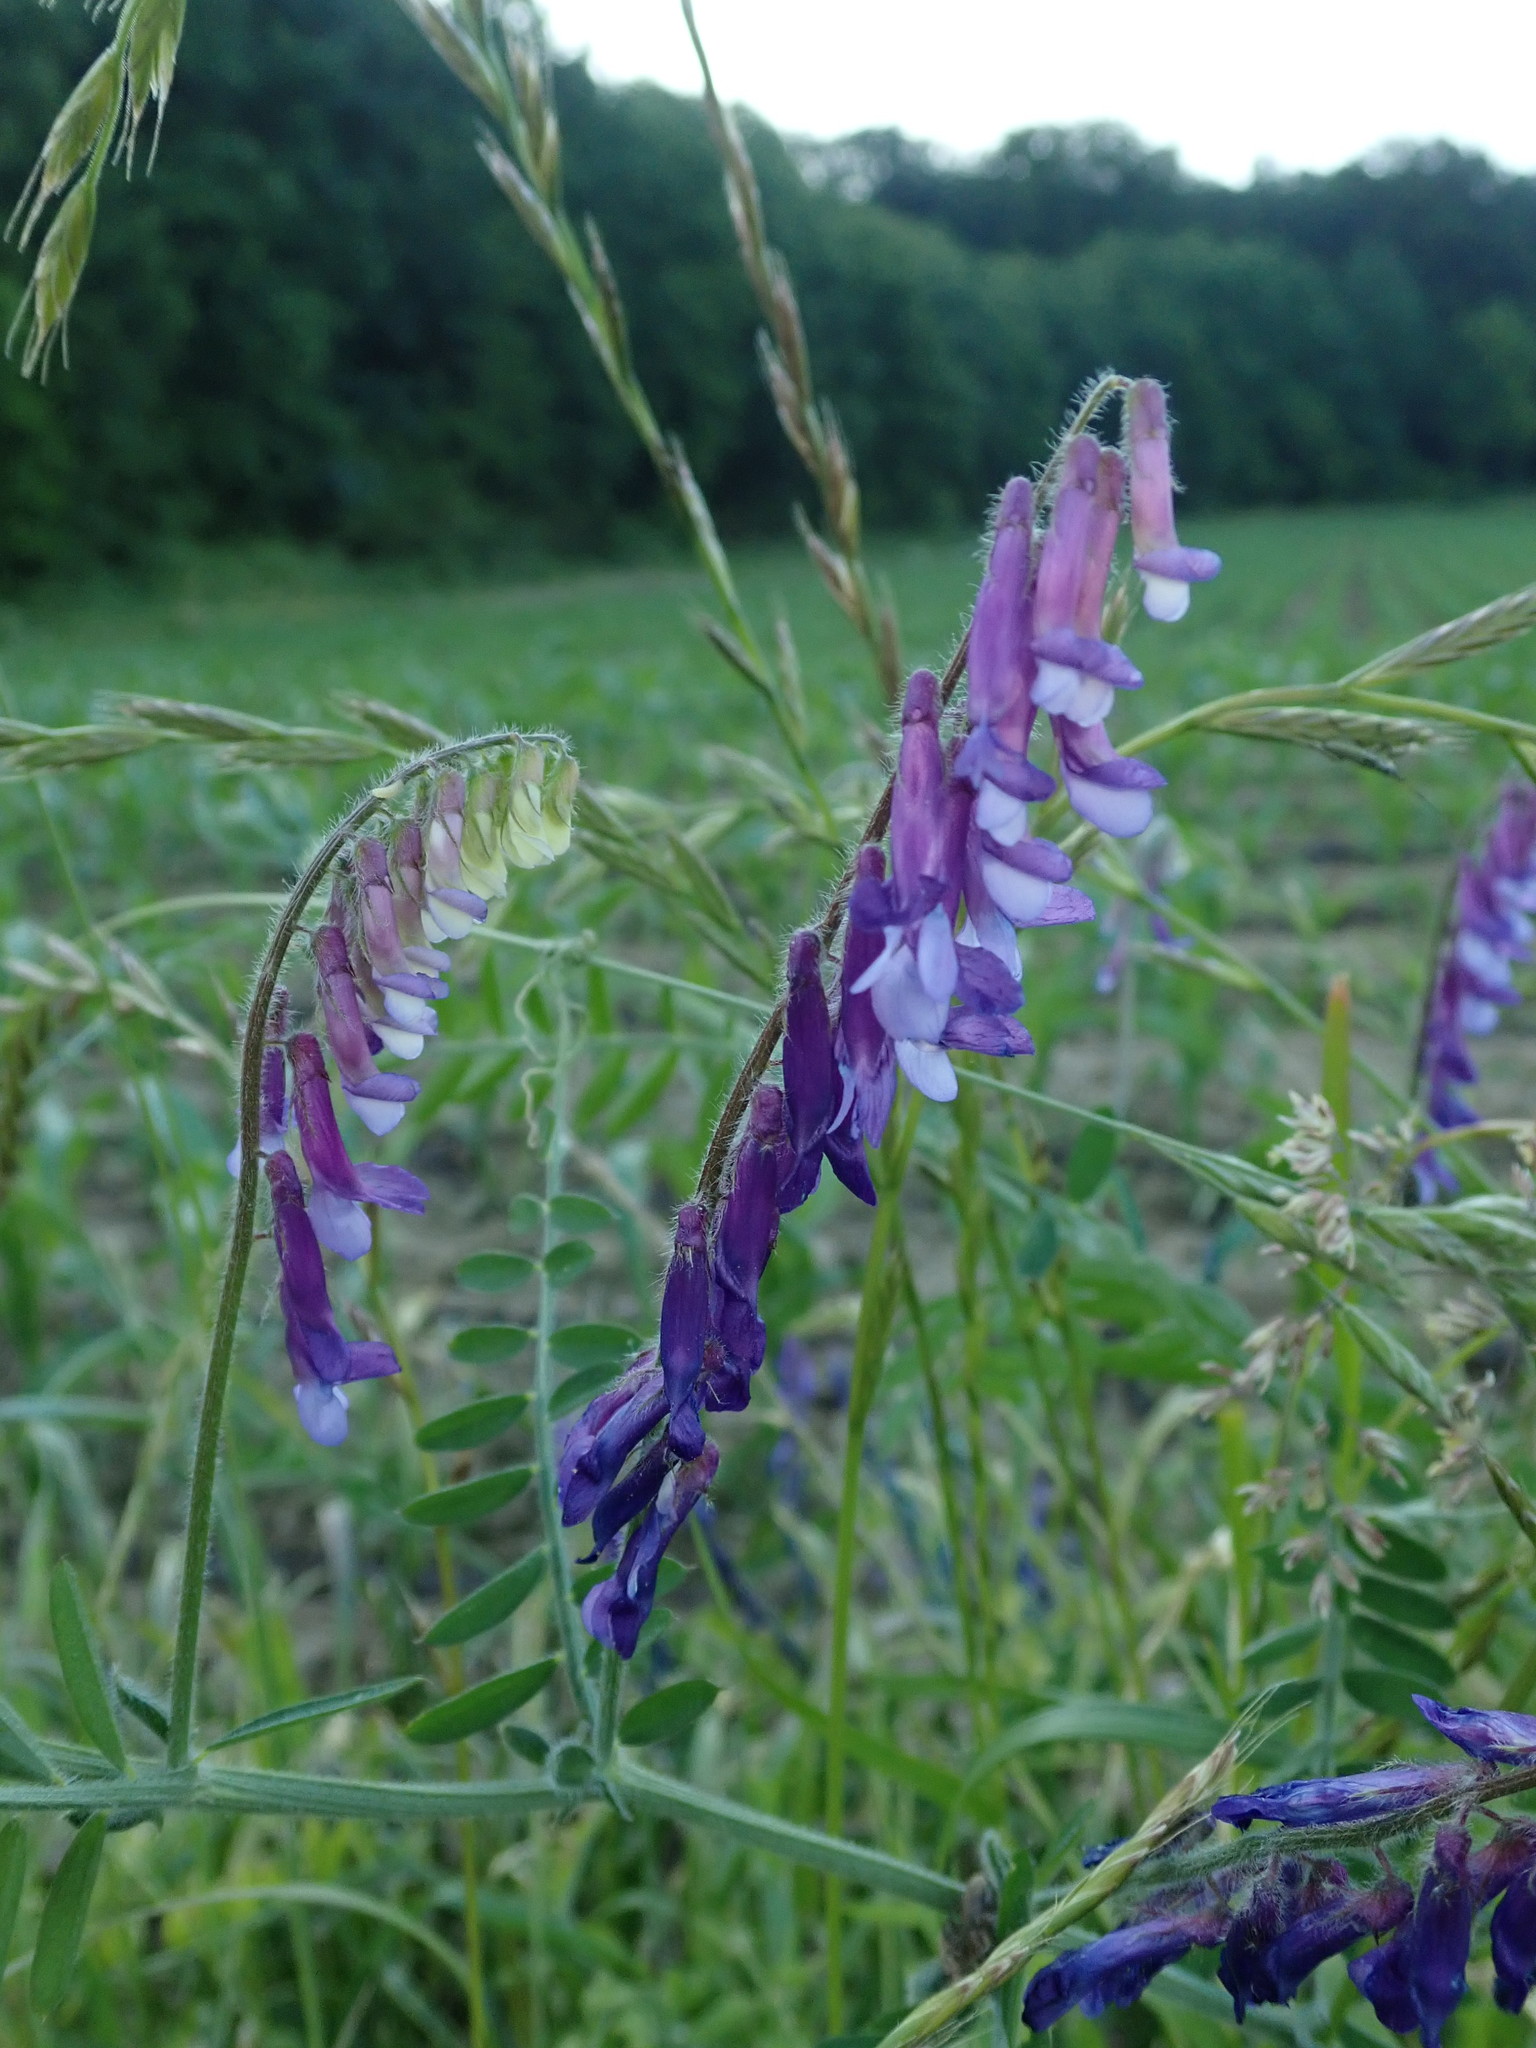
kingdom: Plantae
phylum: Tracheophyta
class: Magnoliopsida
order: Fabales
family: Fabaceae
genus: Vicia
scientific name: Vicia villosa
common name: Fodder vetch
